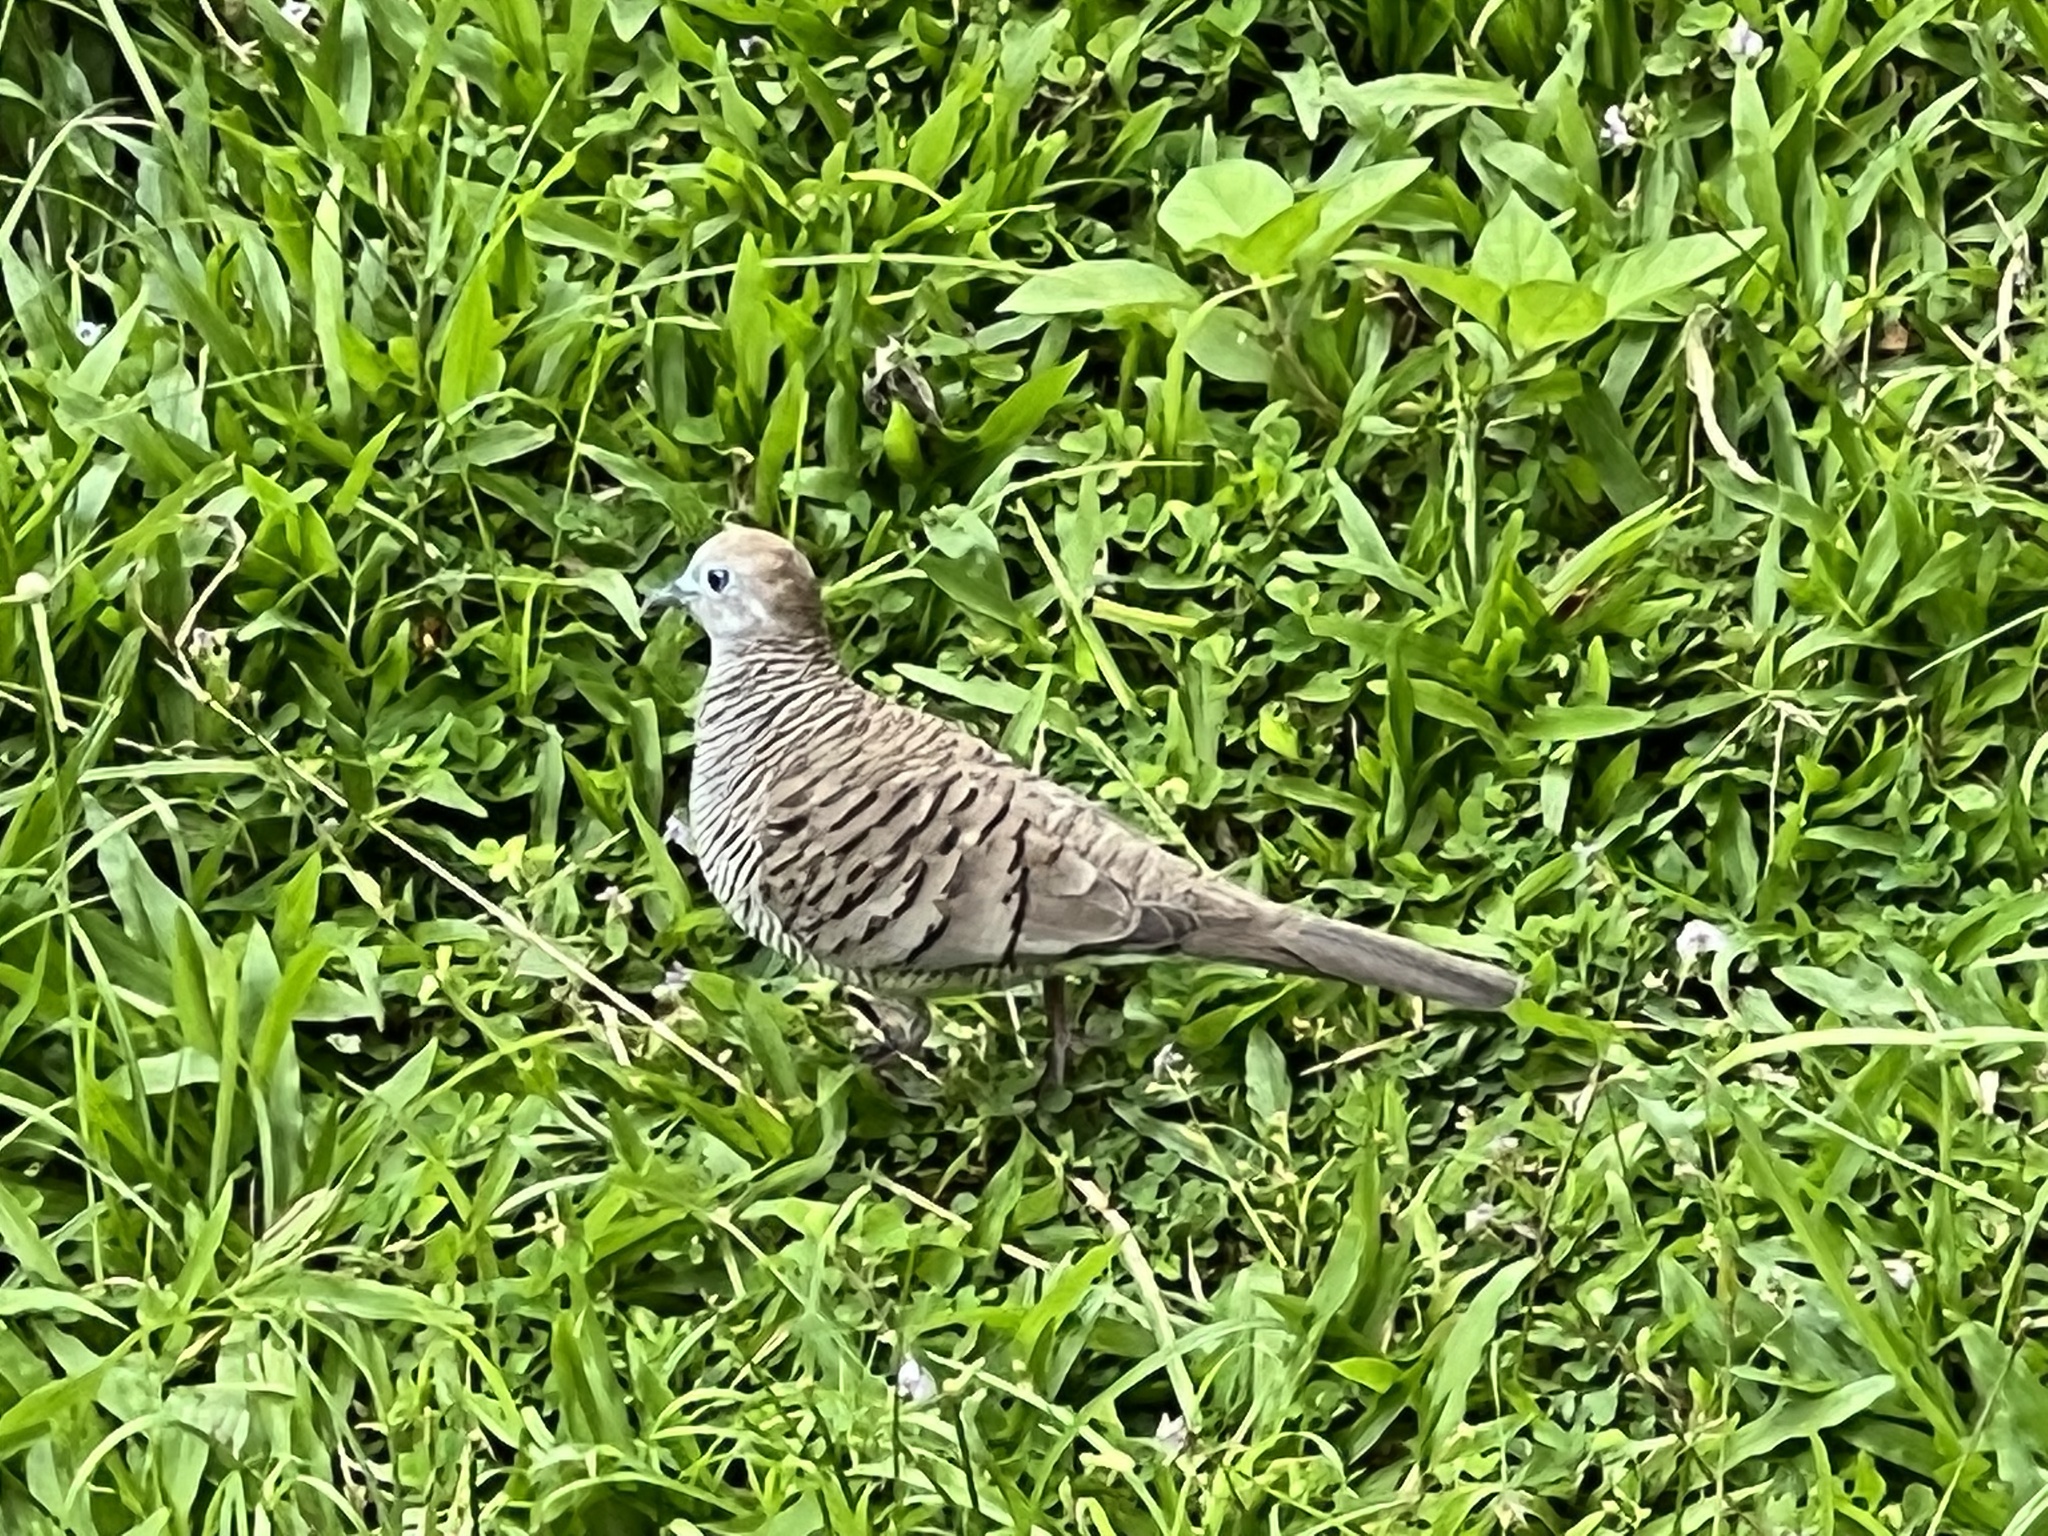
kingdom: Animalia
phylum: Chordata
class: Aves
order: Columbiformes
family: Columbidae
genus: Geopelia
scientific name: Geopelia striata
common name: Zebra dove
